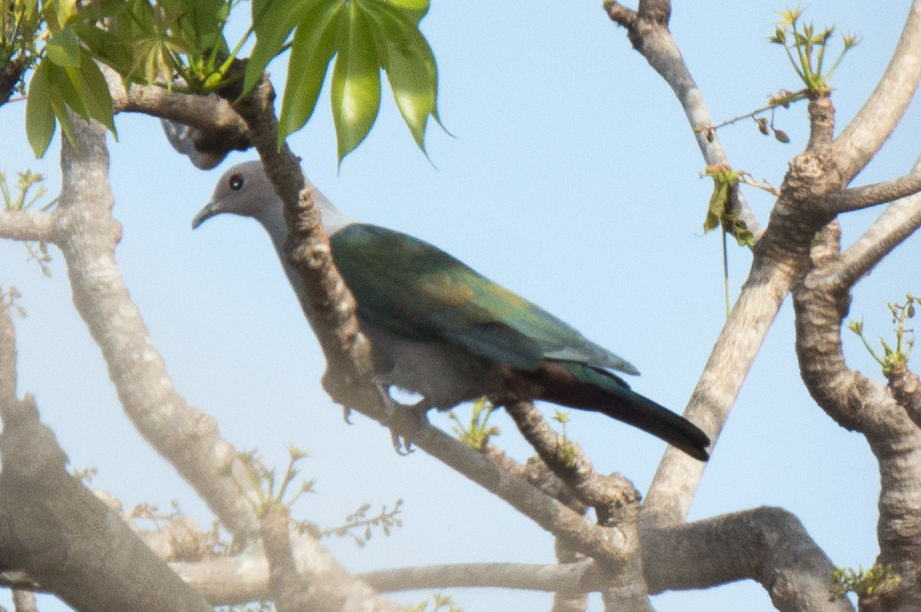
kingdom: Animalia
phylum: Chordata
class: Aves
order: Columbiformes
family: Columbidae
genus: Ducula
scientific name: Ducula aenea
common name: Green imperial pigeon
